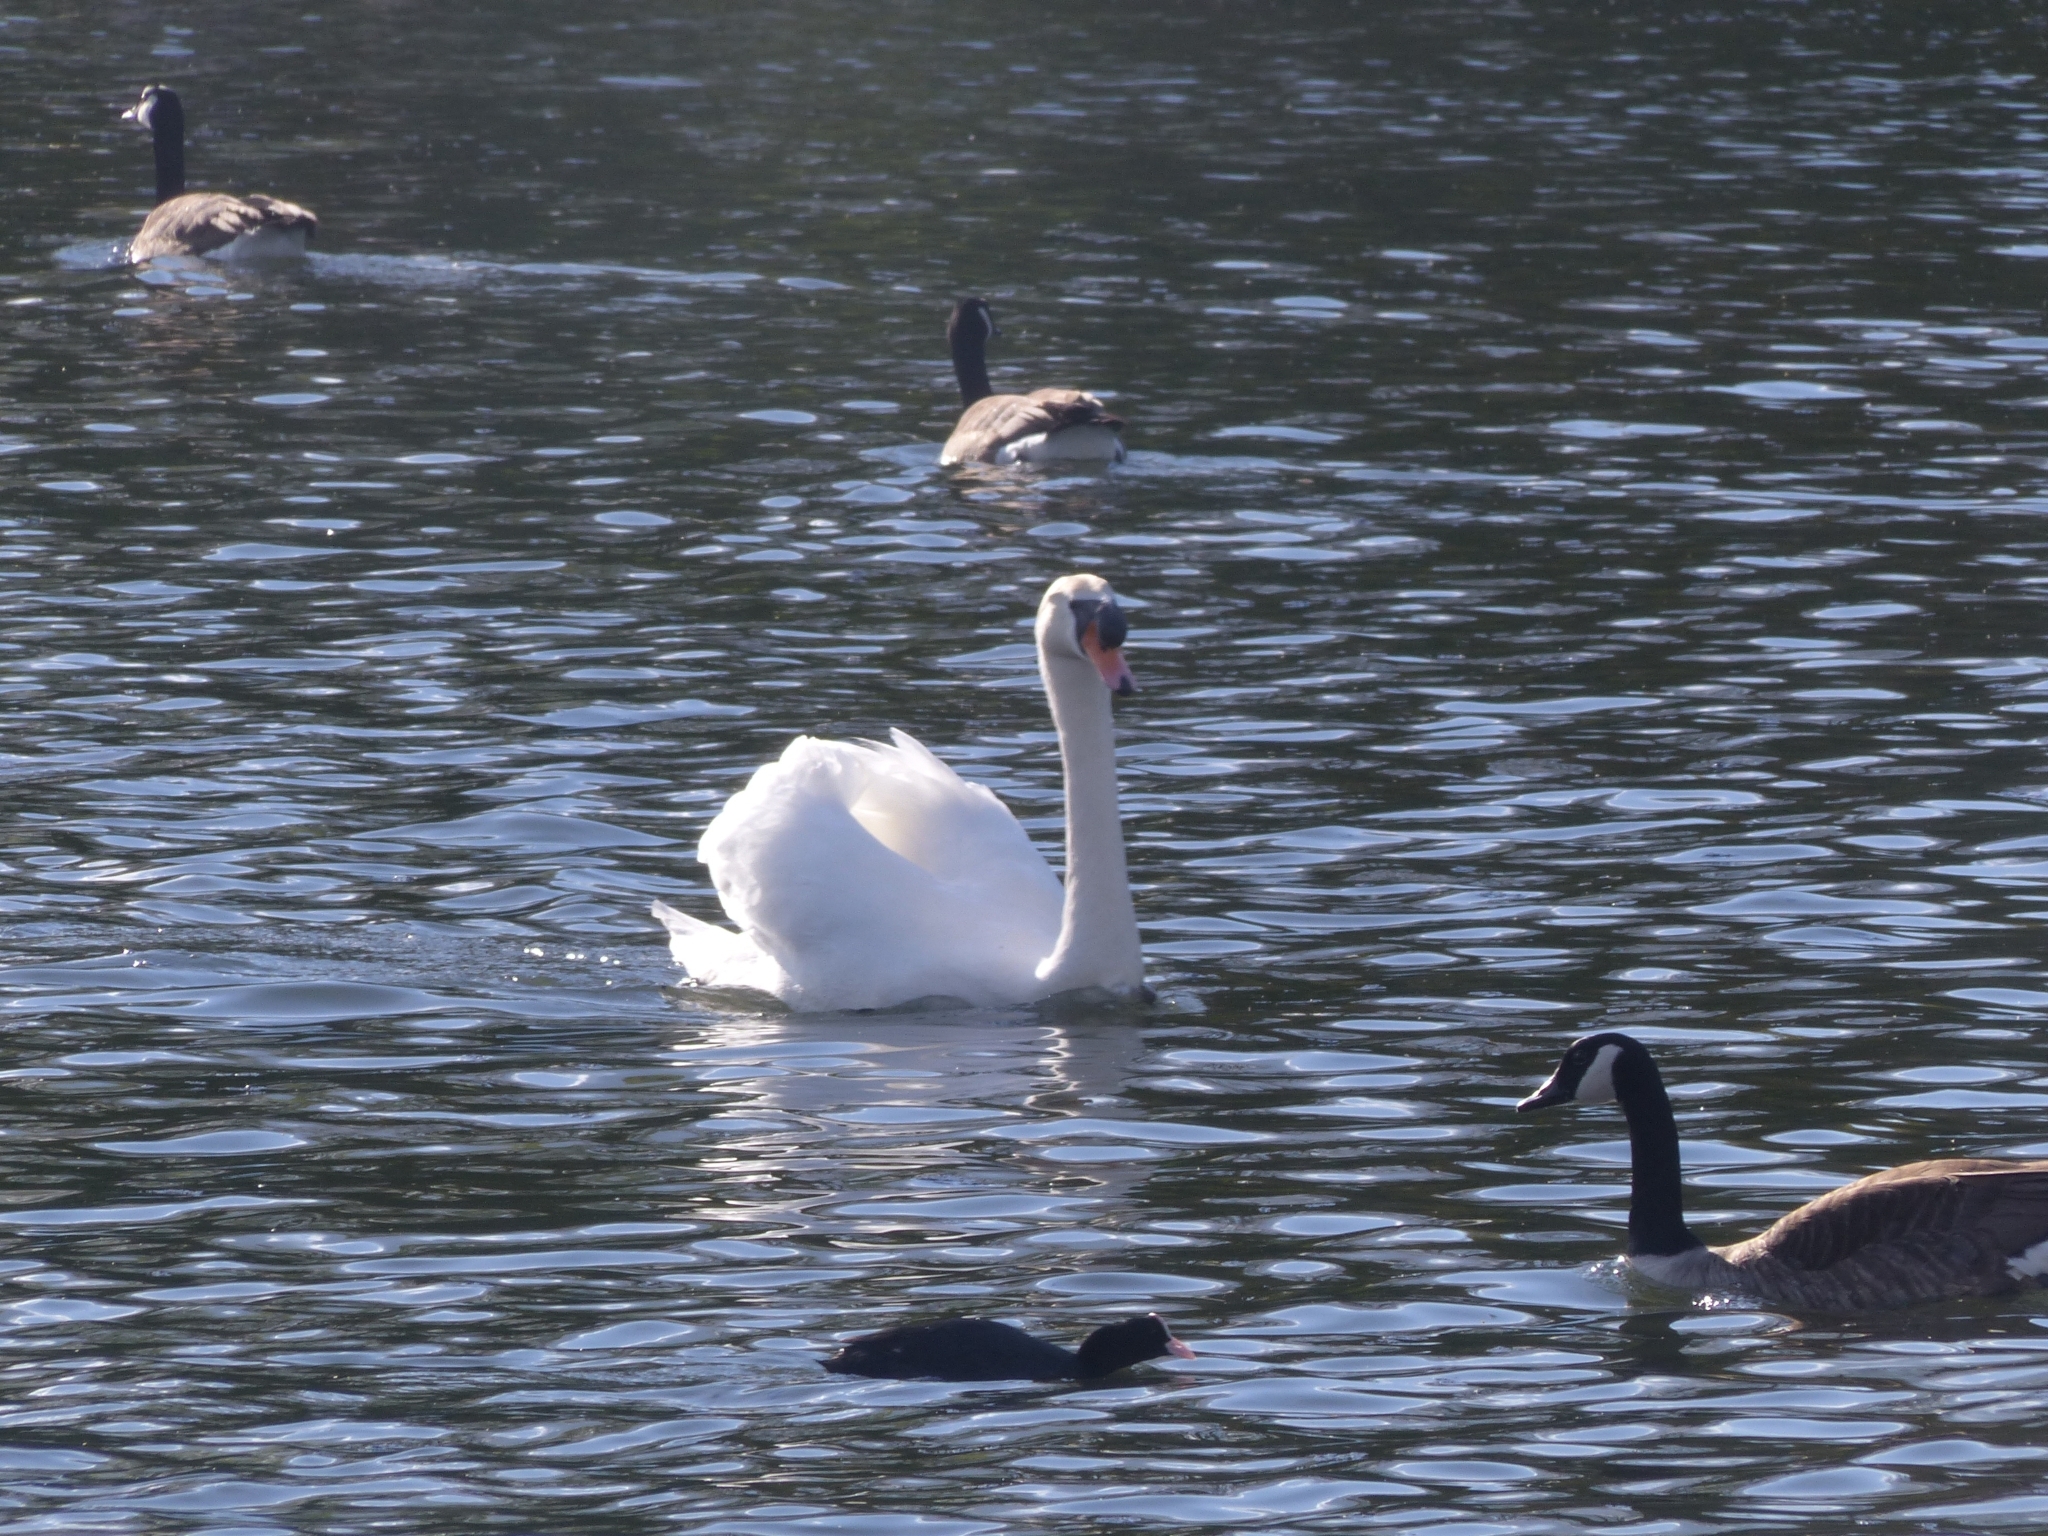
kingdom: Animalia
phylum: Chordata
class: Aves
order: Anseriformes
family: Anatidae
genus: Cygnus
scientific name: Cygnus olor
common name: Mute swan
